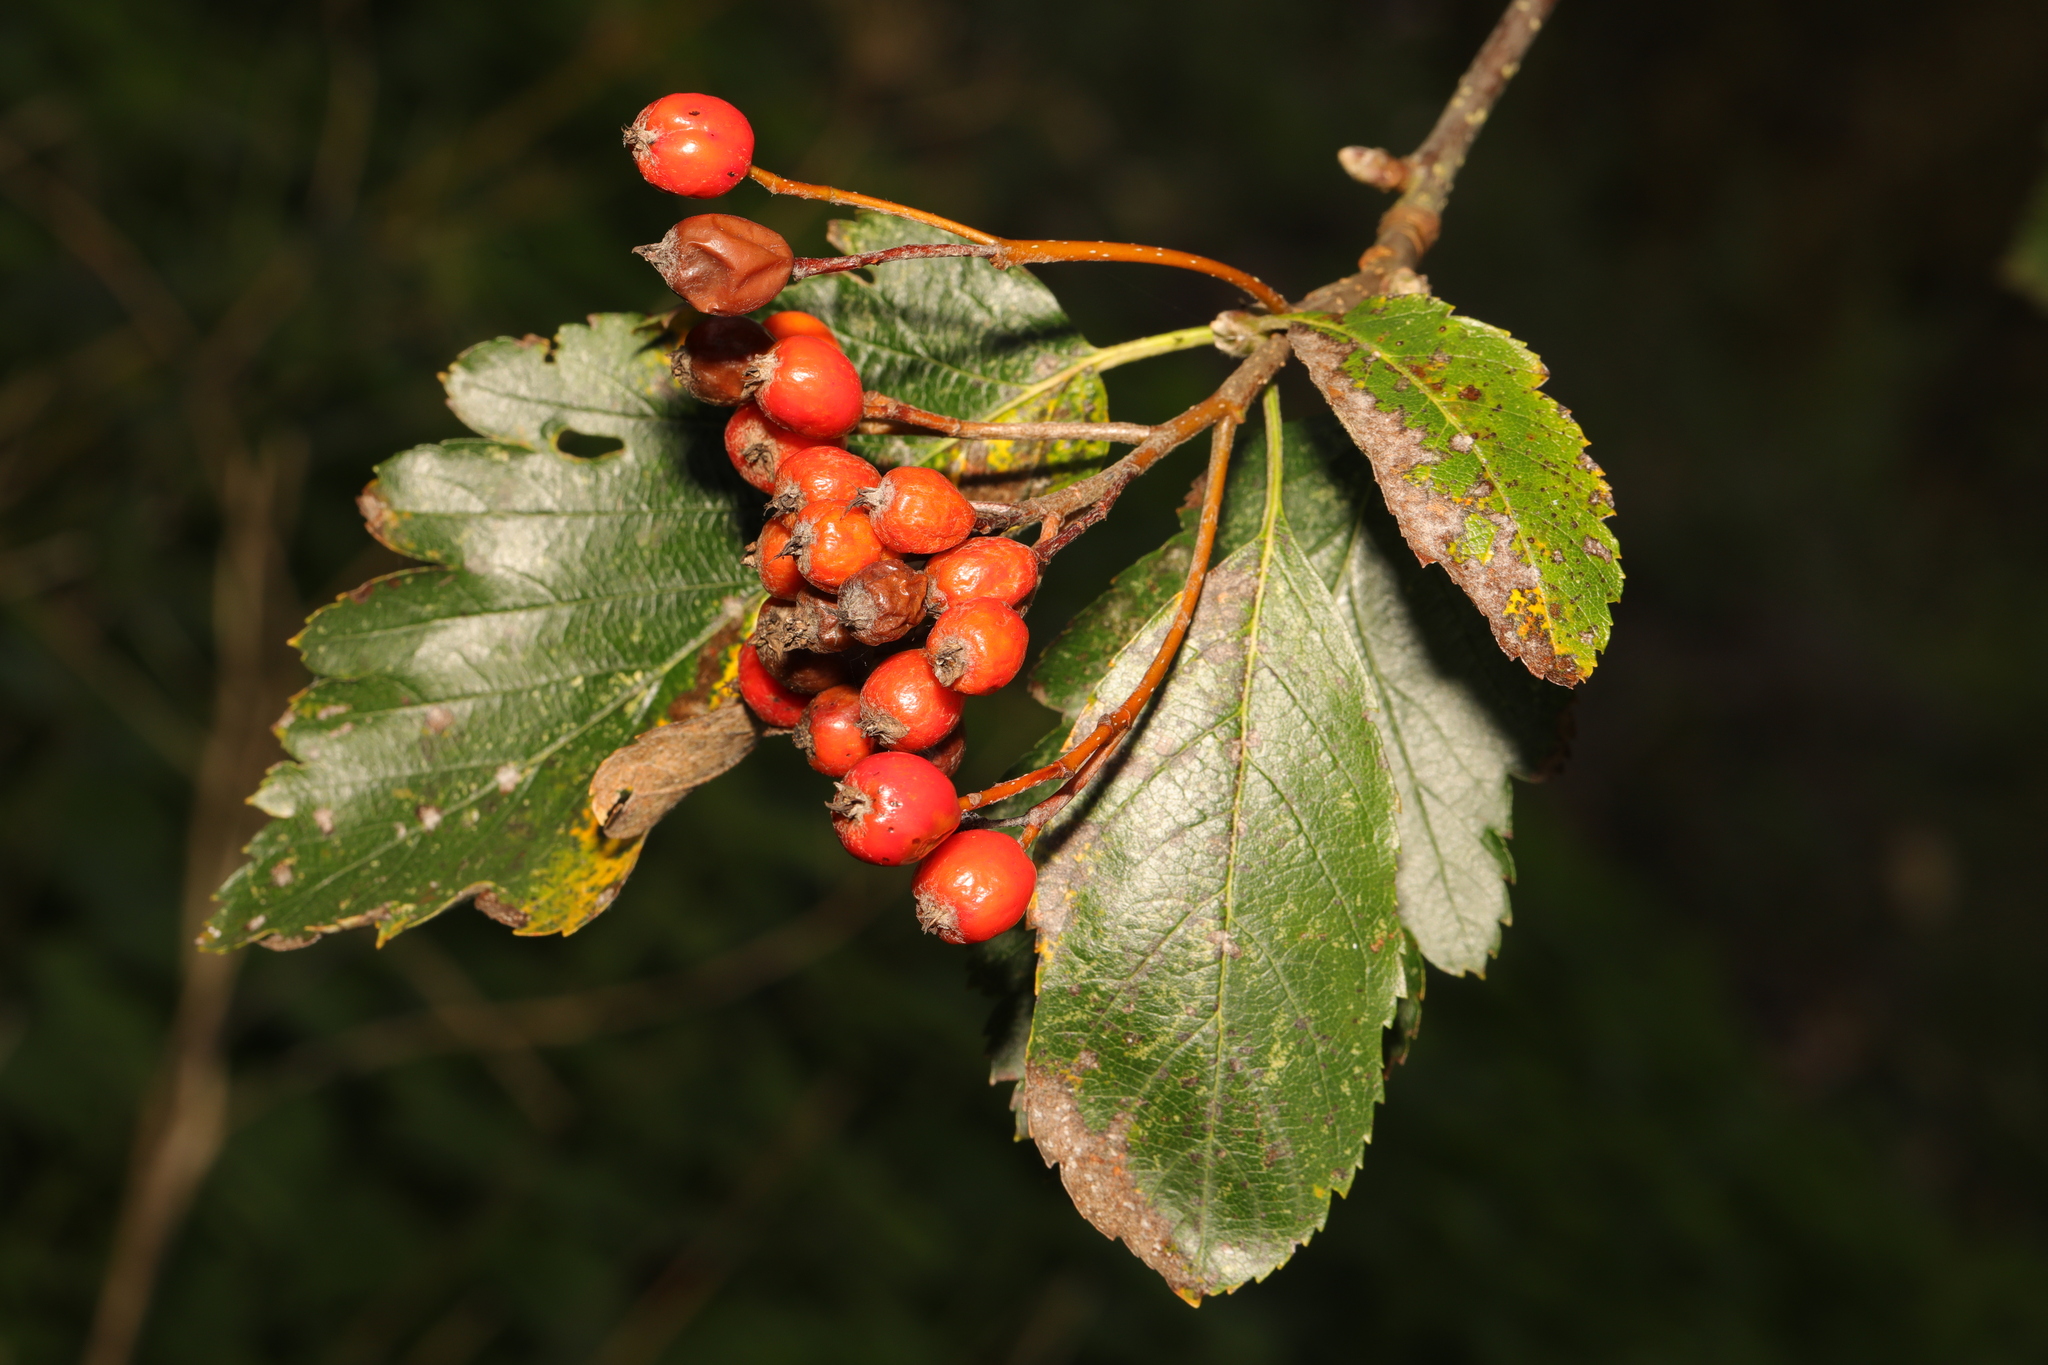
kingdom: Plantae
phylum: Tracheophyta
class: Magnoliopsida
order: Rosales
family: Rosaceae
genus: Scandosorbus
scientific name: Scandosorbus intermedia
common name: Swedish whitebeam
